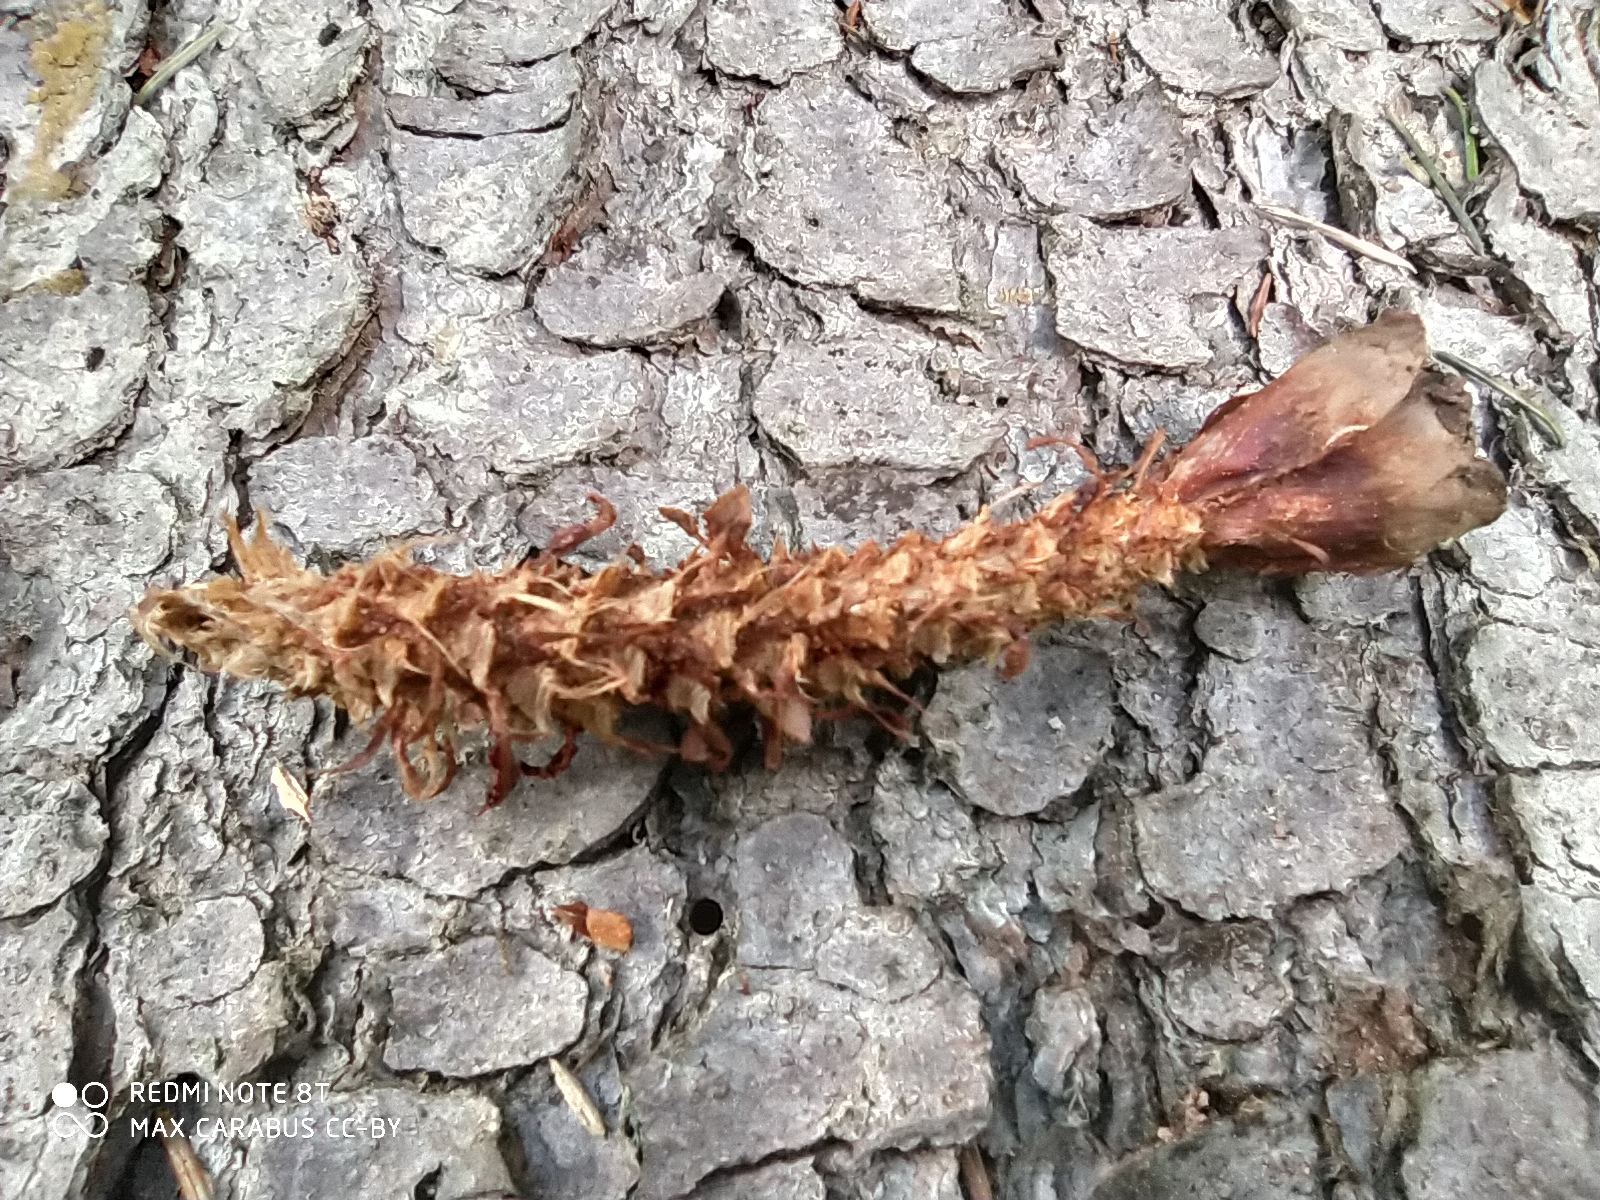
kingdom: Animalia
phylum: Chordata
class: Mammalia
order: Rodentia
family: Sciuridae
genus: Sciurus
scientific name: Sciurus vulgaris
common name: Eurasian red squirrel
